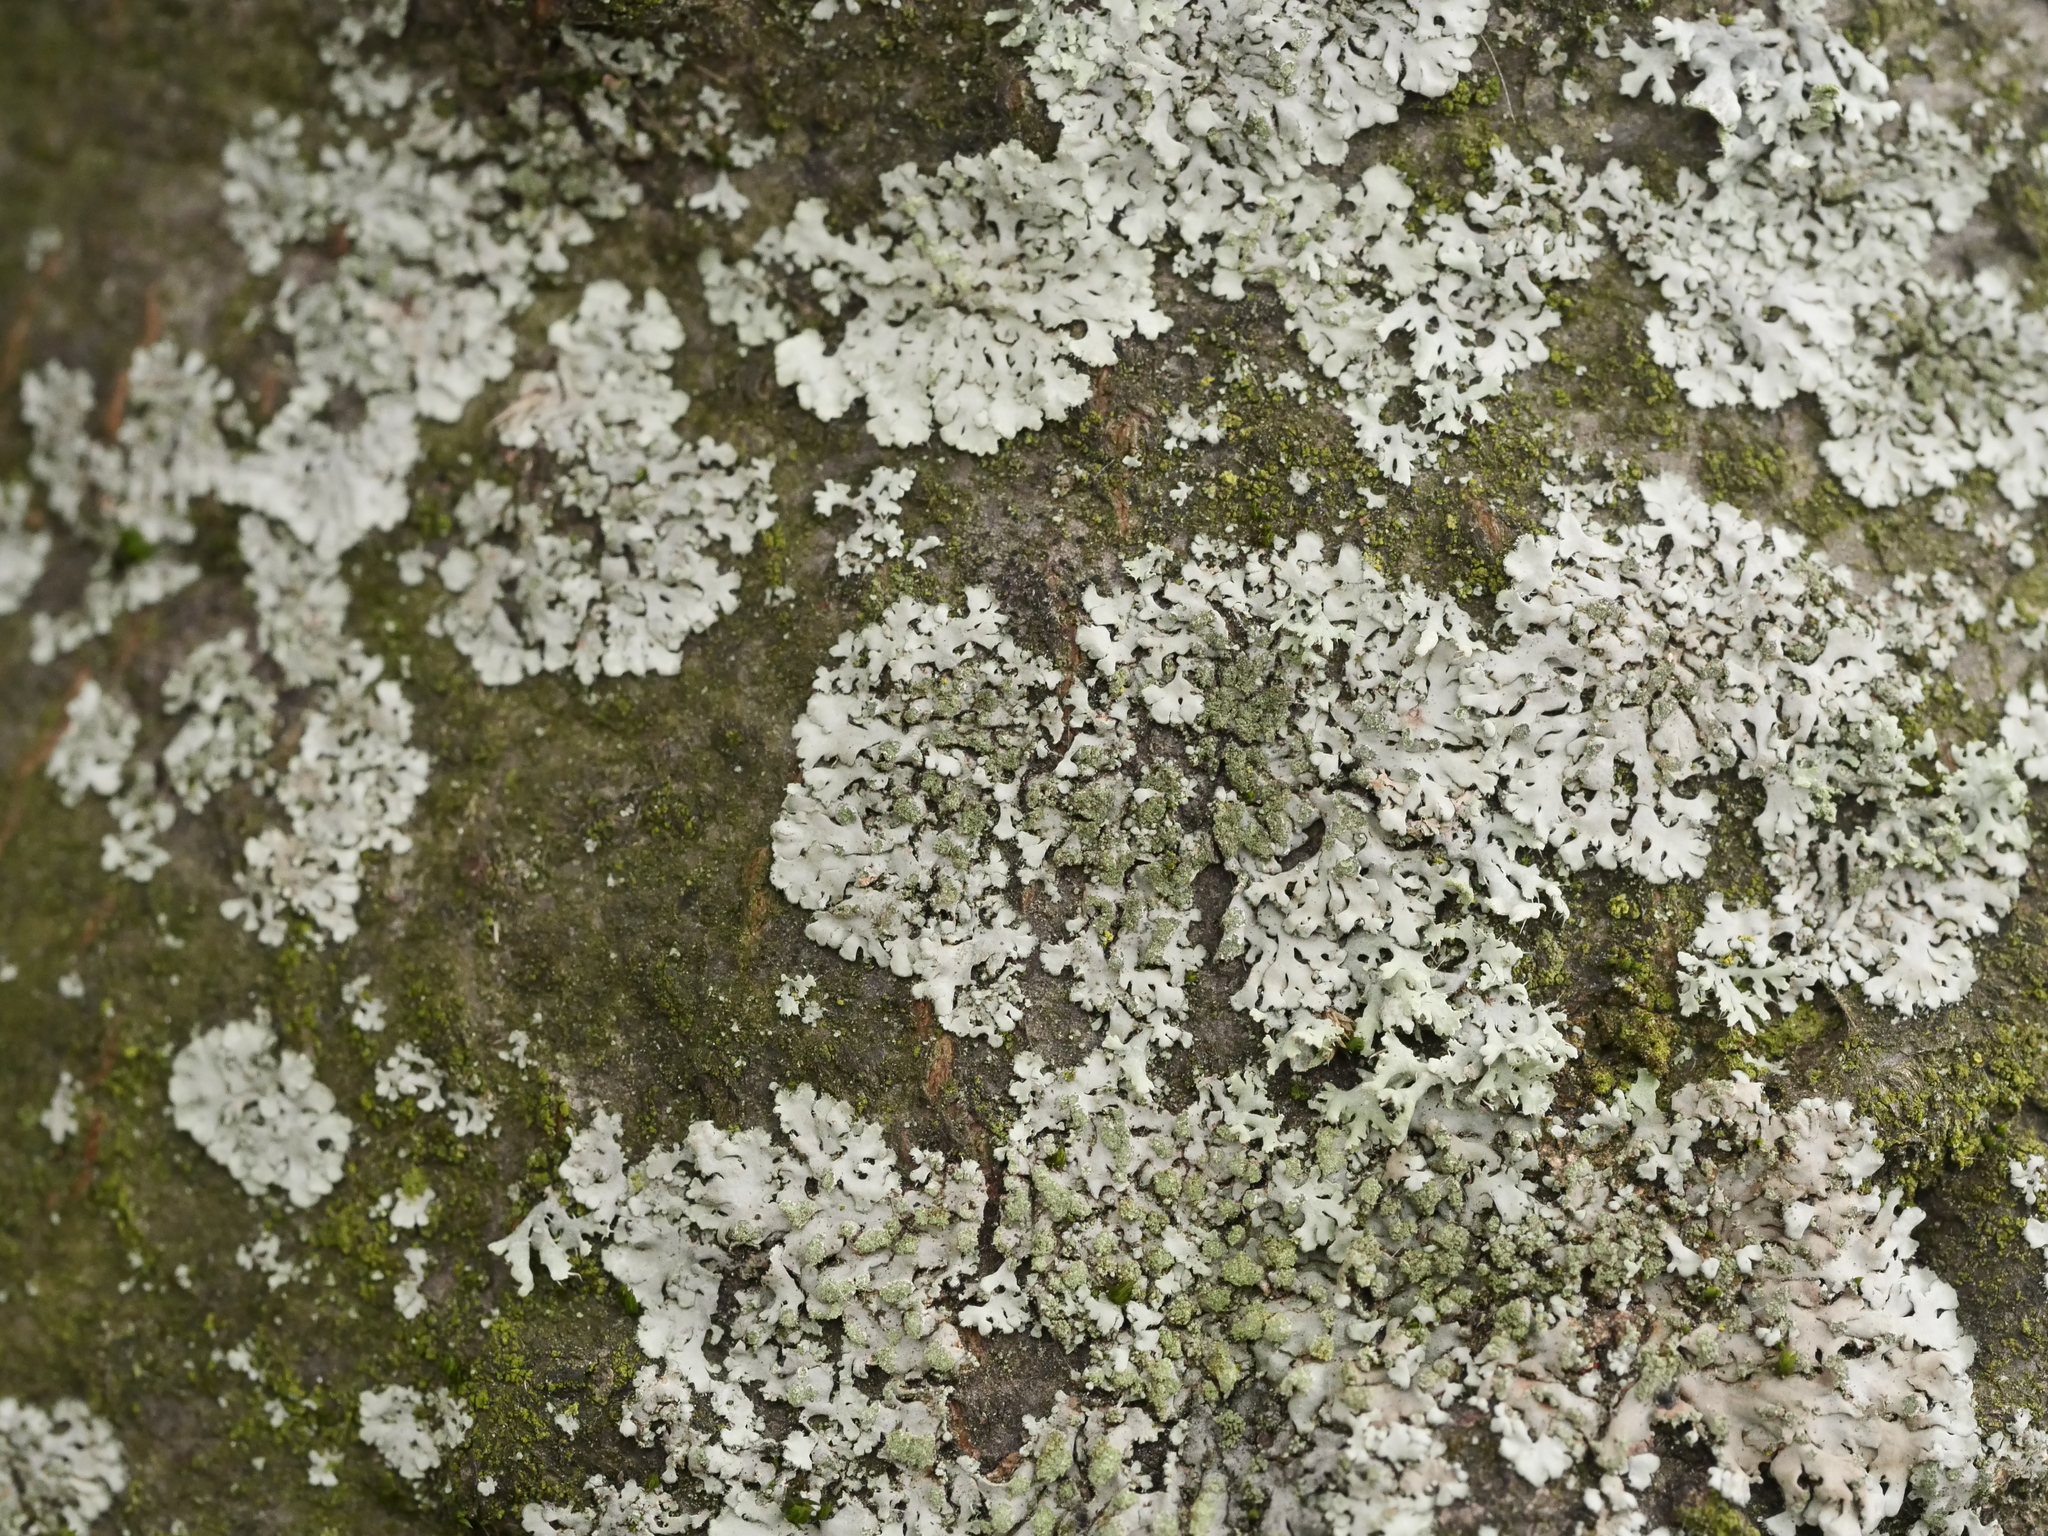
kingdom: Fungi
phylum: Ascomycota
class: Lecanoromycetes
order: Caliciales
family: Physciaceae
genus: Phaeophyscia
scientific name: Phaeophyscia orbicularis
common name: Mealy shadow lichen
